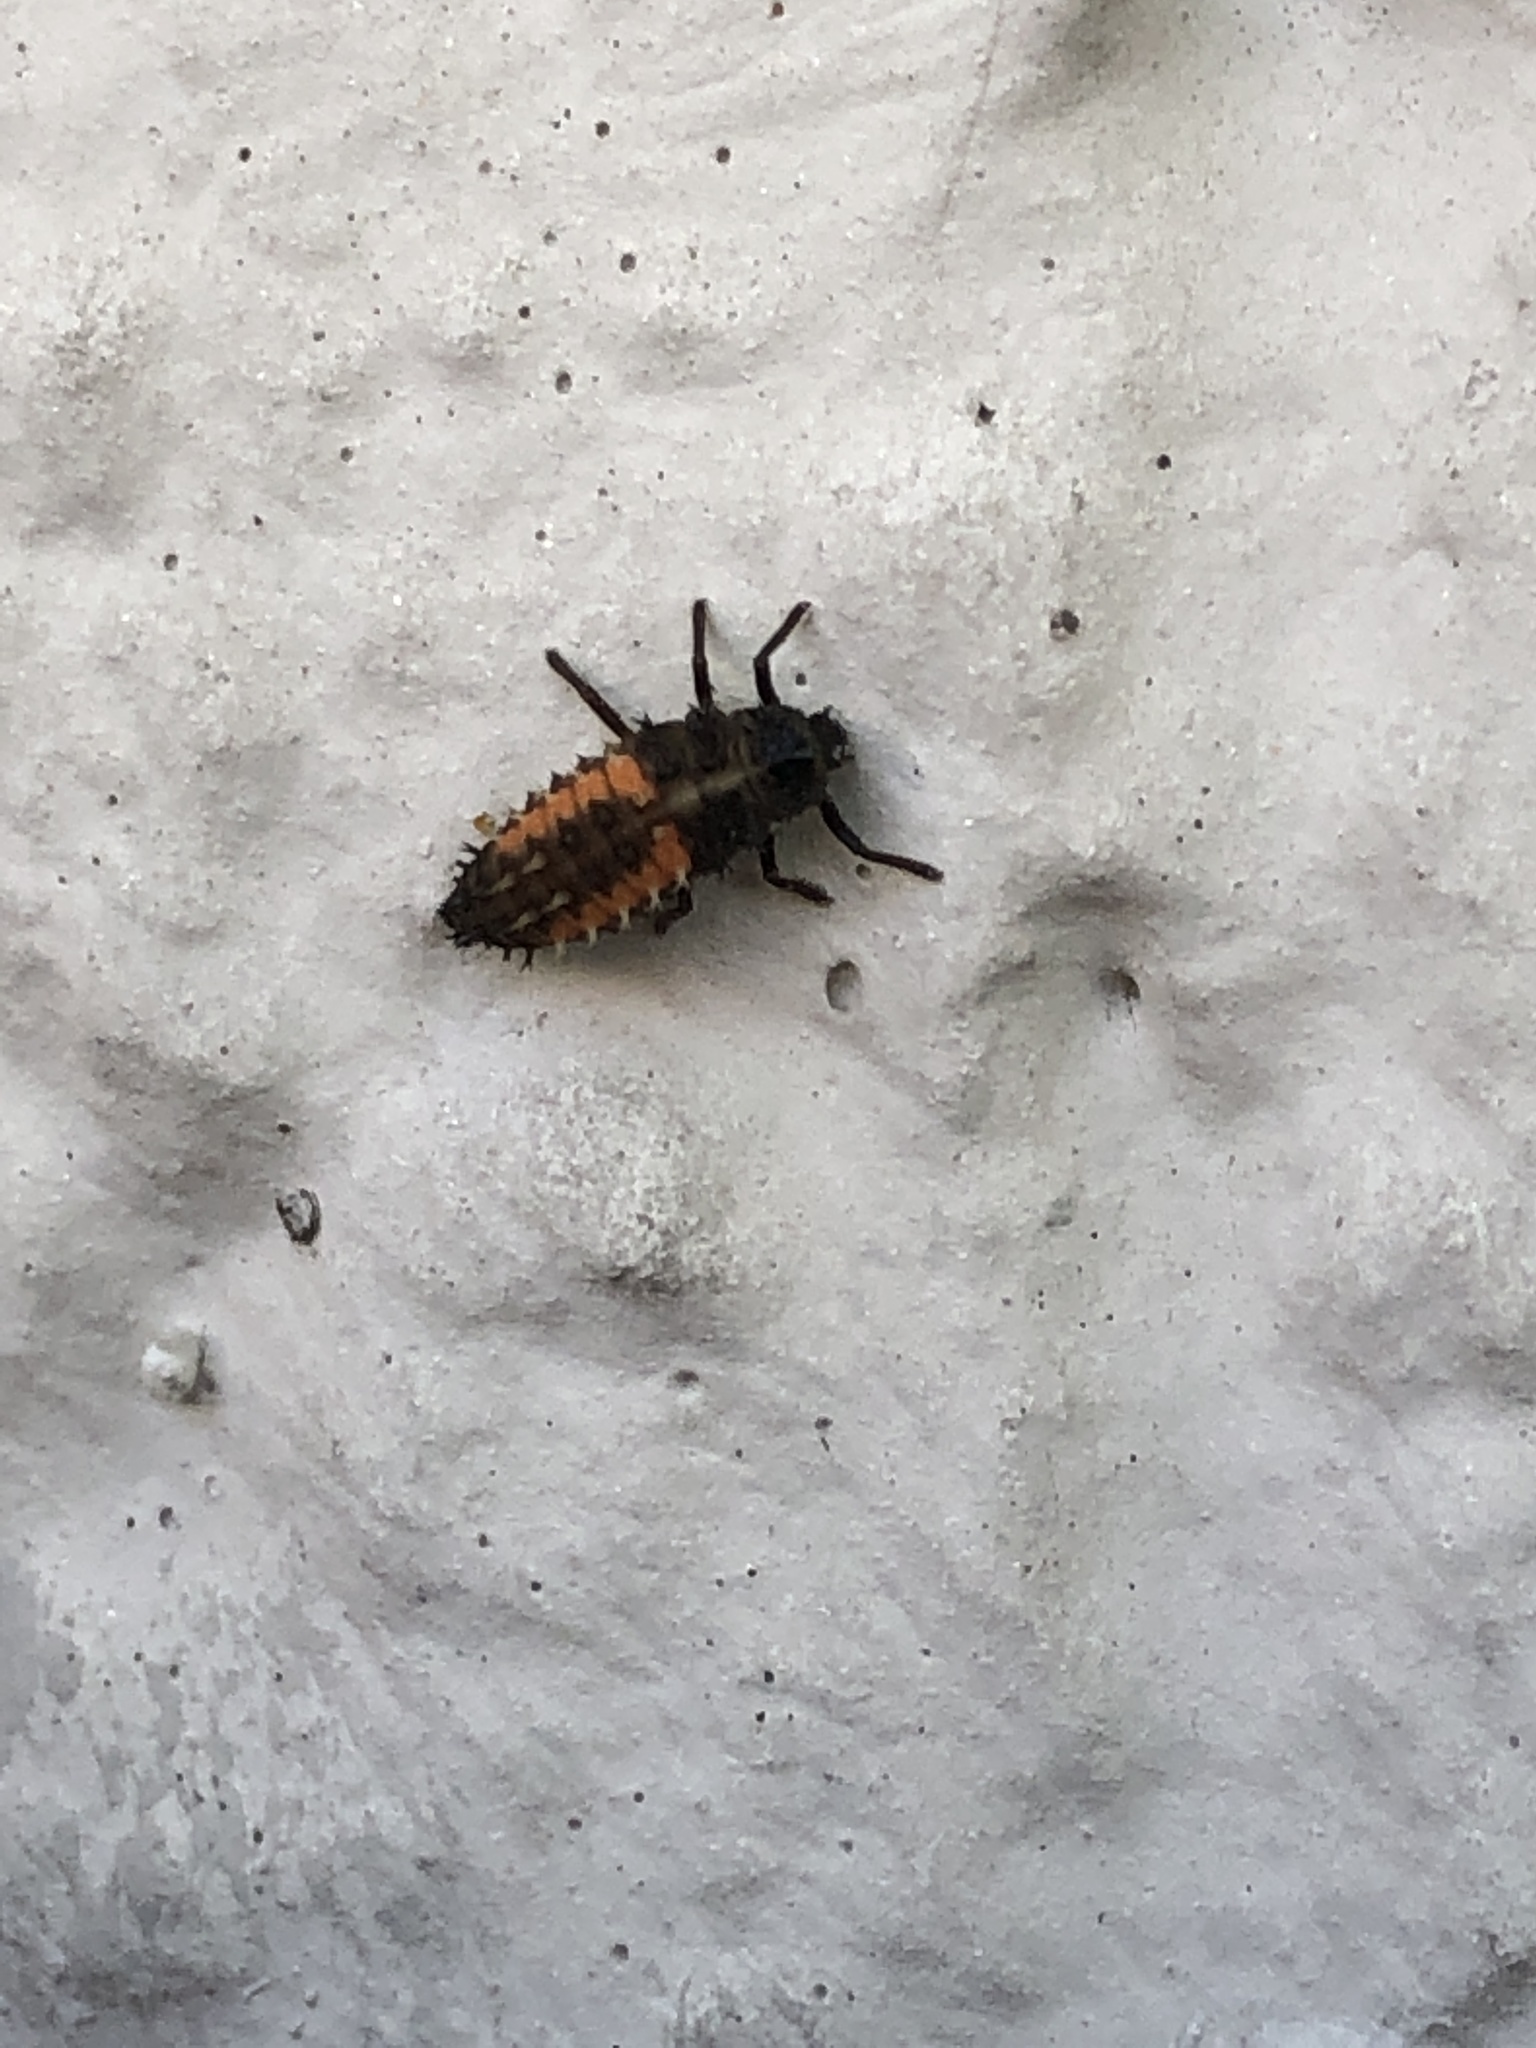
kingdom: Animalia
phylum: Arthropoda
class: Insecta
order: Coleoptera
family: Coccinellidae
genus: Harmonia
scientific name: Harmonia axyridis
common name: Harlequin ladybird
